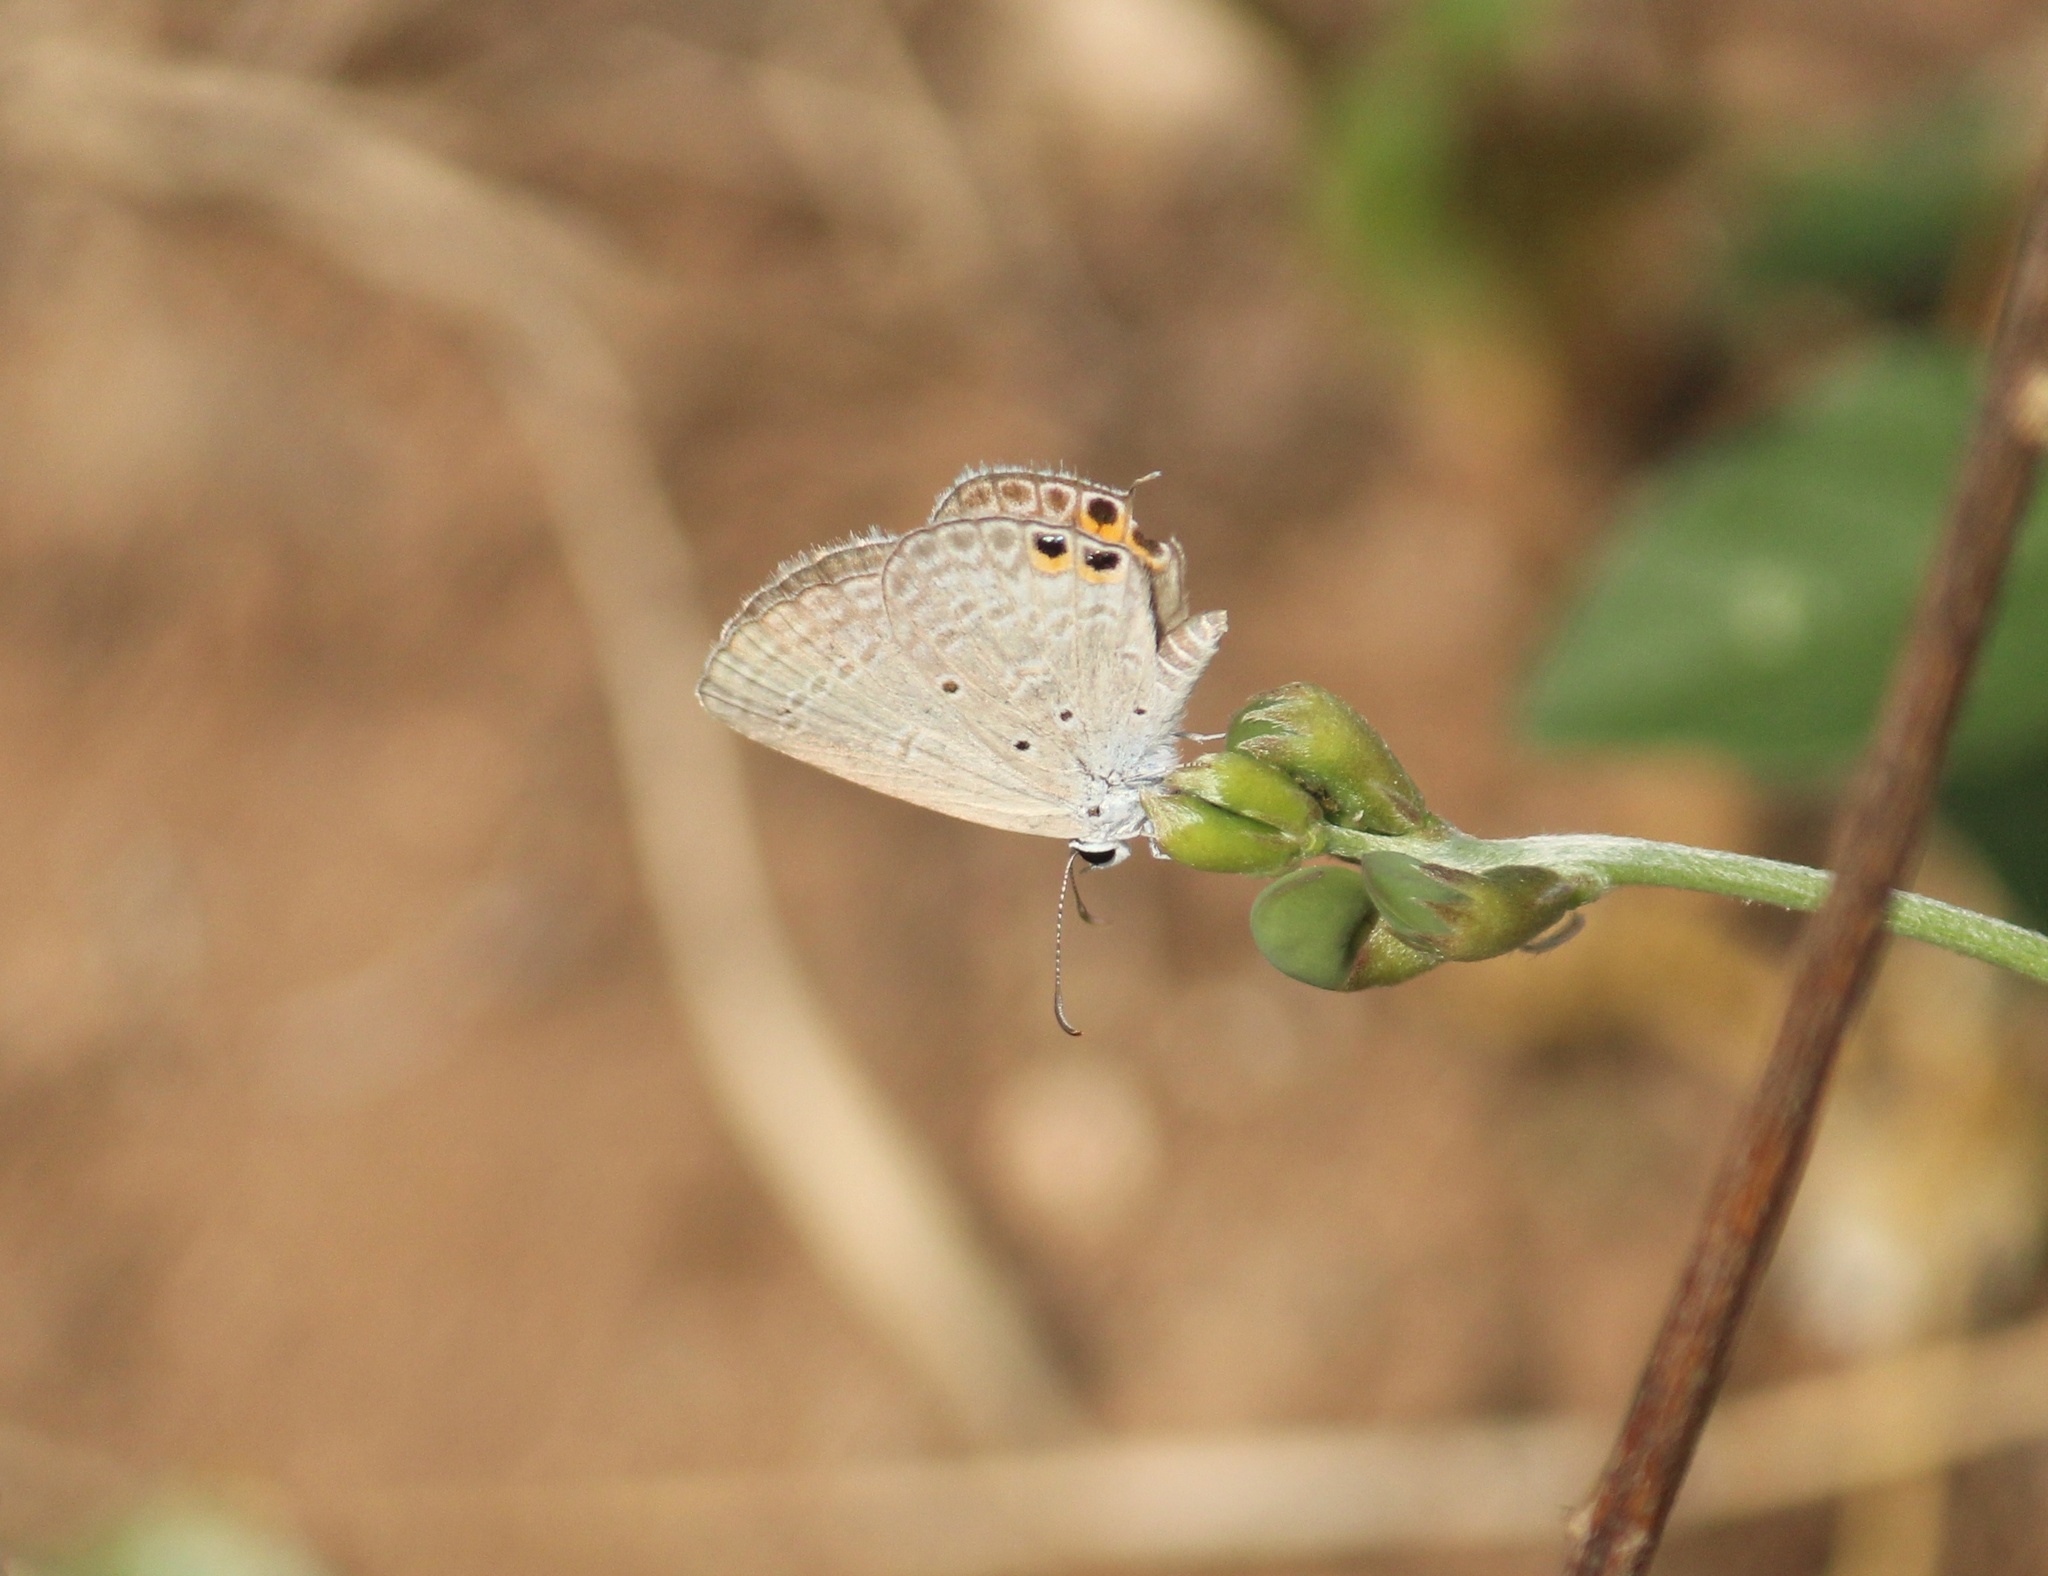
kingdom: Animalia
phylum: Arthropoda
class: Insecta
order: Lepidoptera
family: Lycaenidae
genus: Euchrysops
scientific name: Euchrysops cnejus
